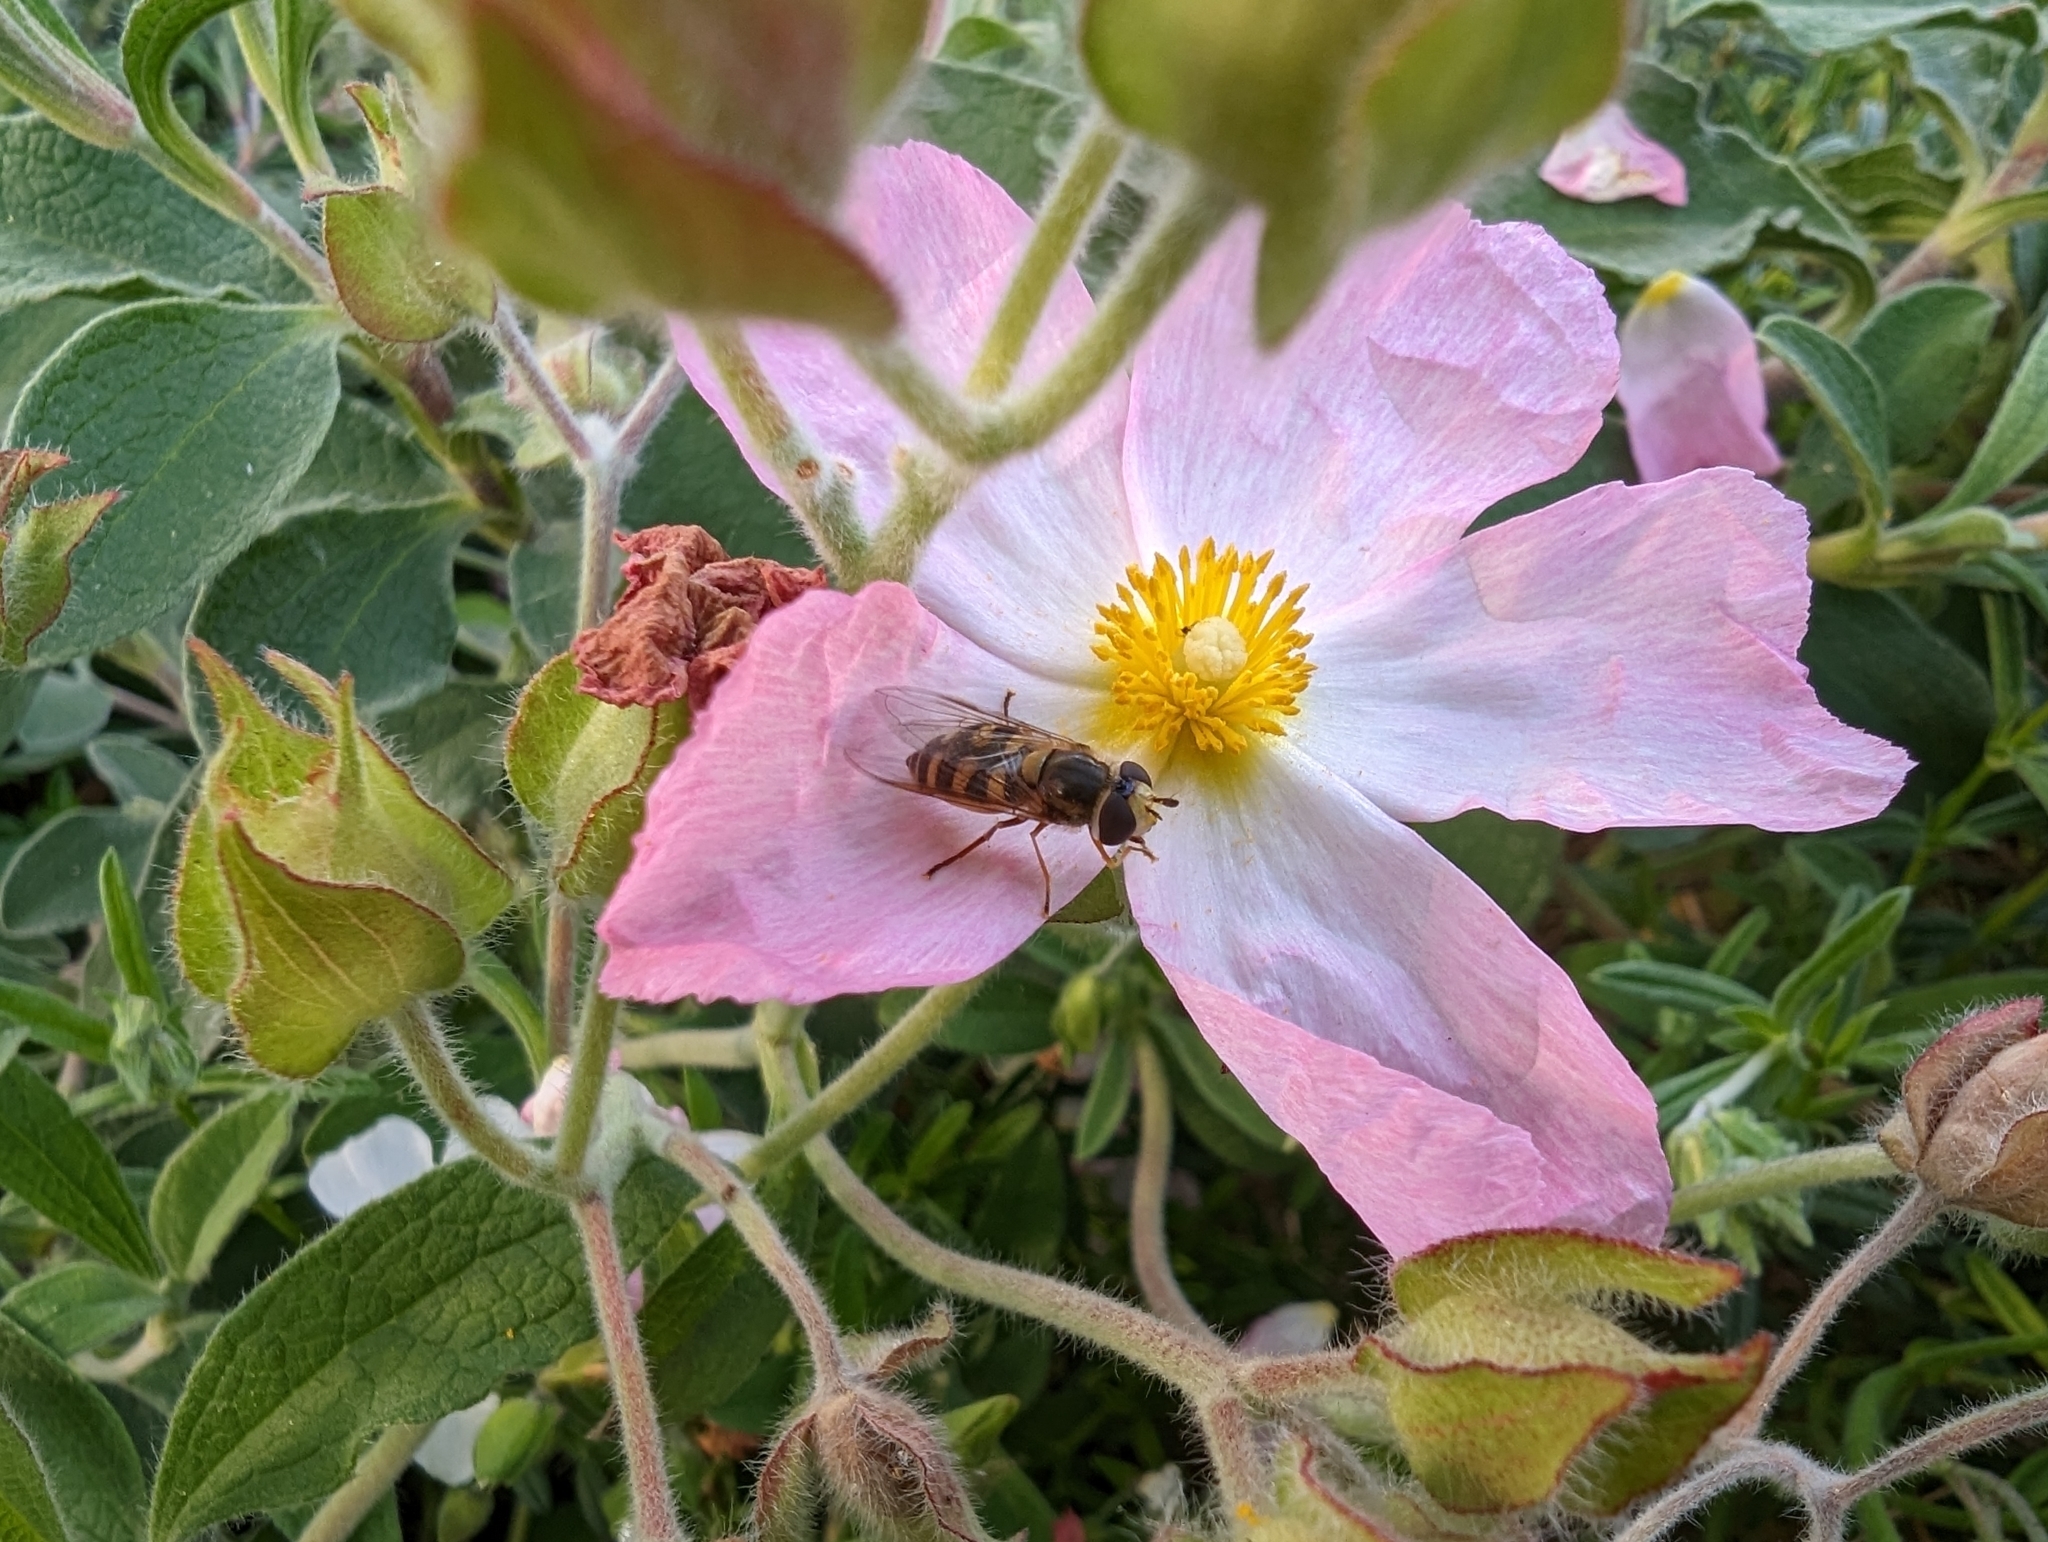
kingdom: Animalia
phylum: Arthropoda
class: Insecta
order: Diptera
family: Syrphidae
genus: Eupeodes
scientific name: Eupeodes corollae
